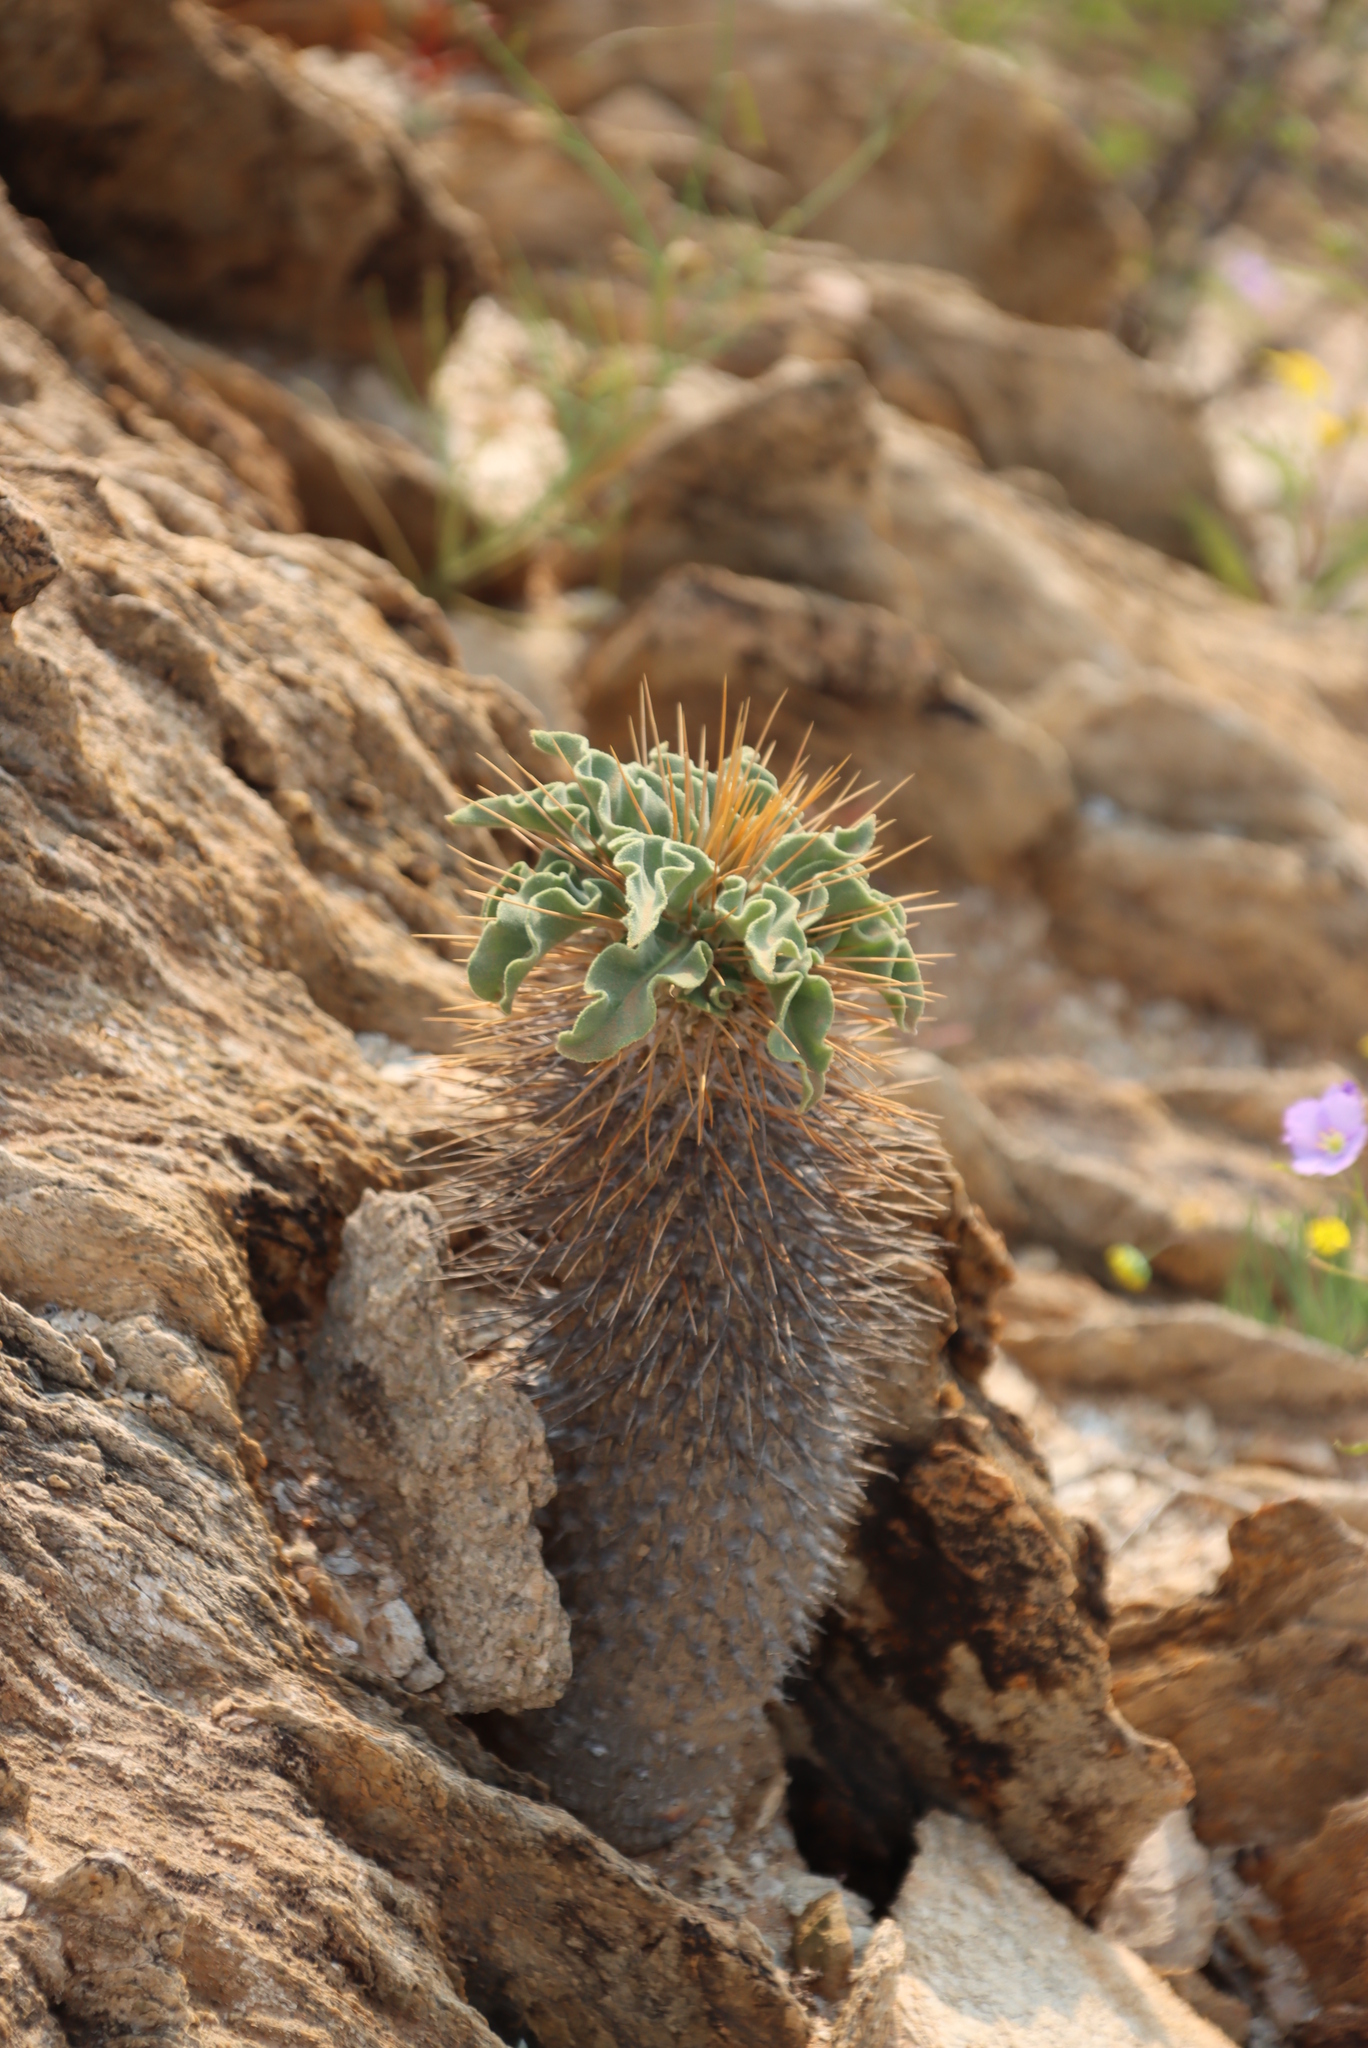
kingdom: Plantae
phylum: Tracheophyta
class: Magnoliopsida
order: Gentianales
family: Apocynaceae
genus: Pachypodium
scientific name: Pachypodium namaquanum
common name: Elephant's trunk
